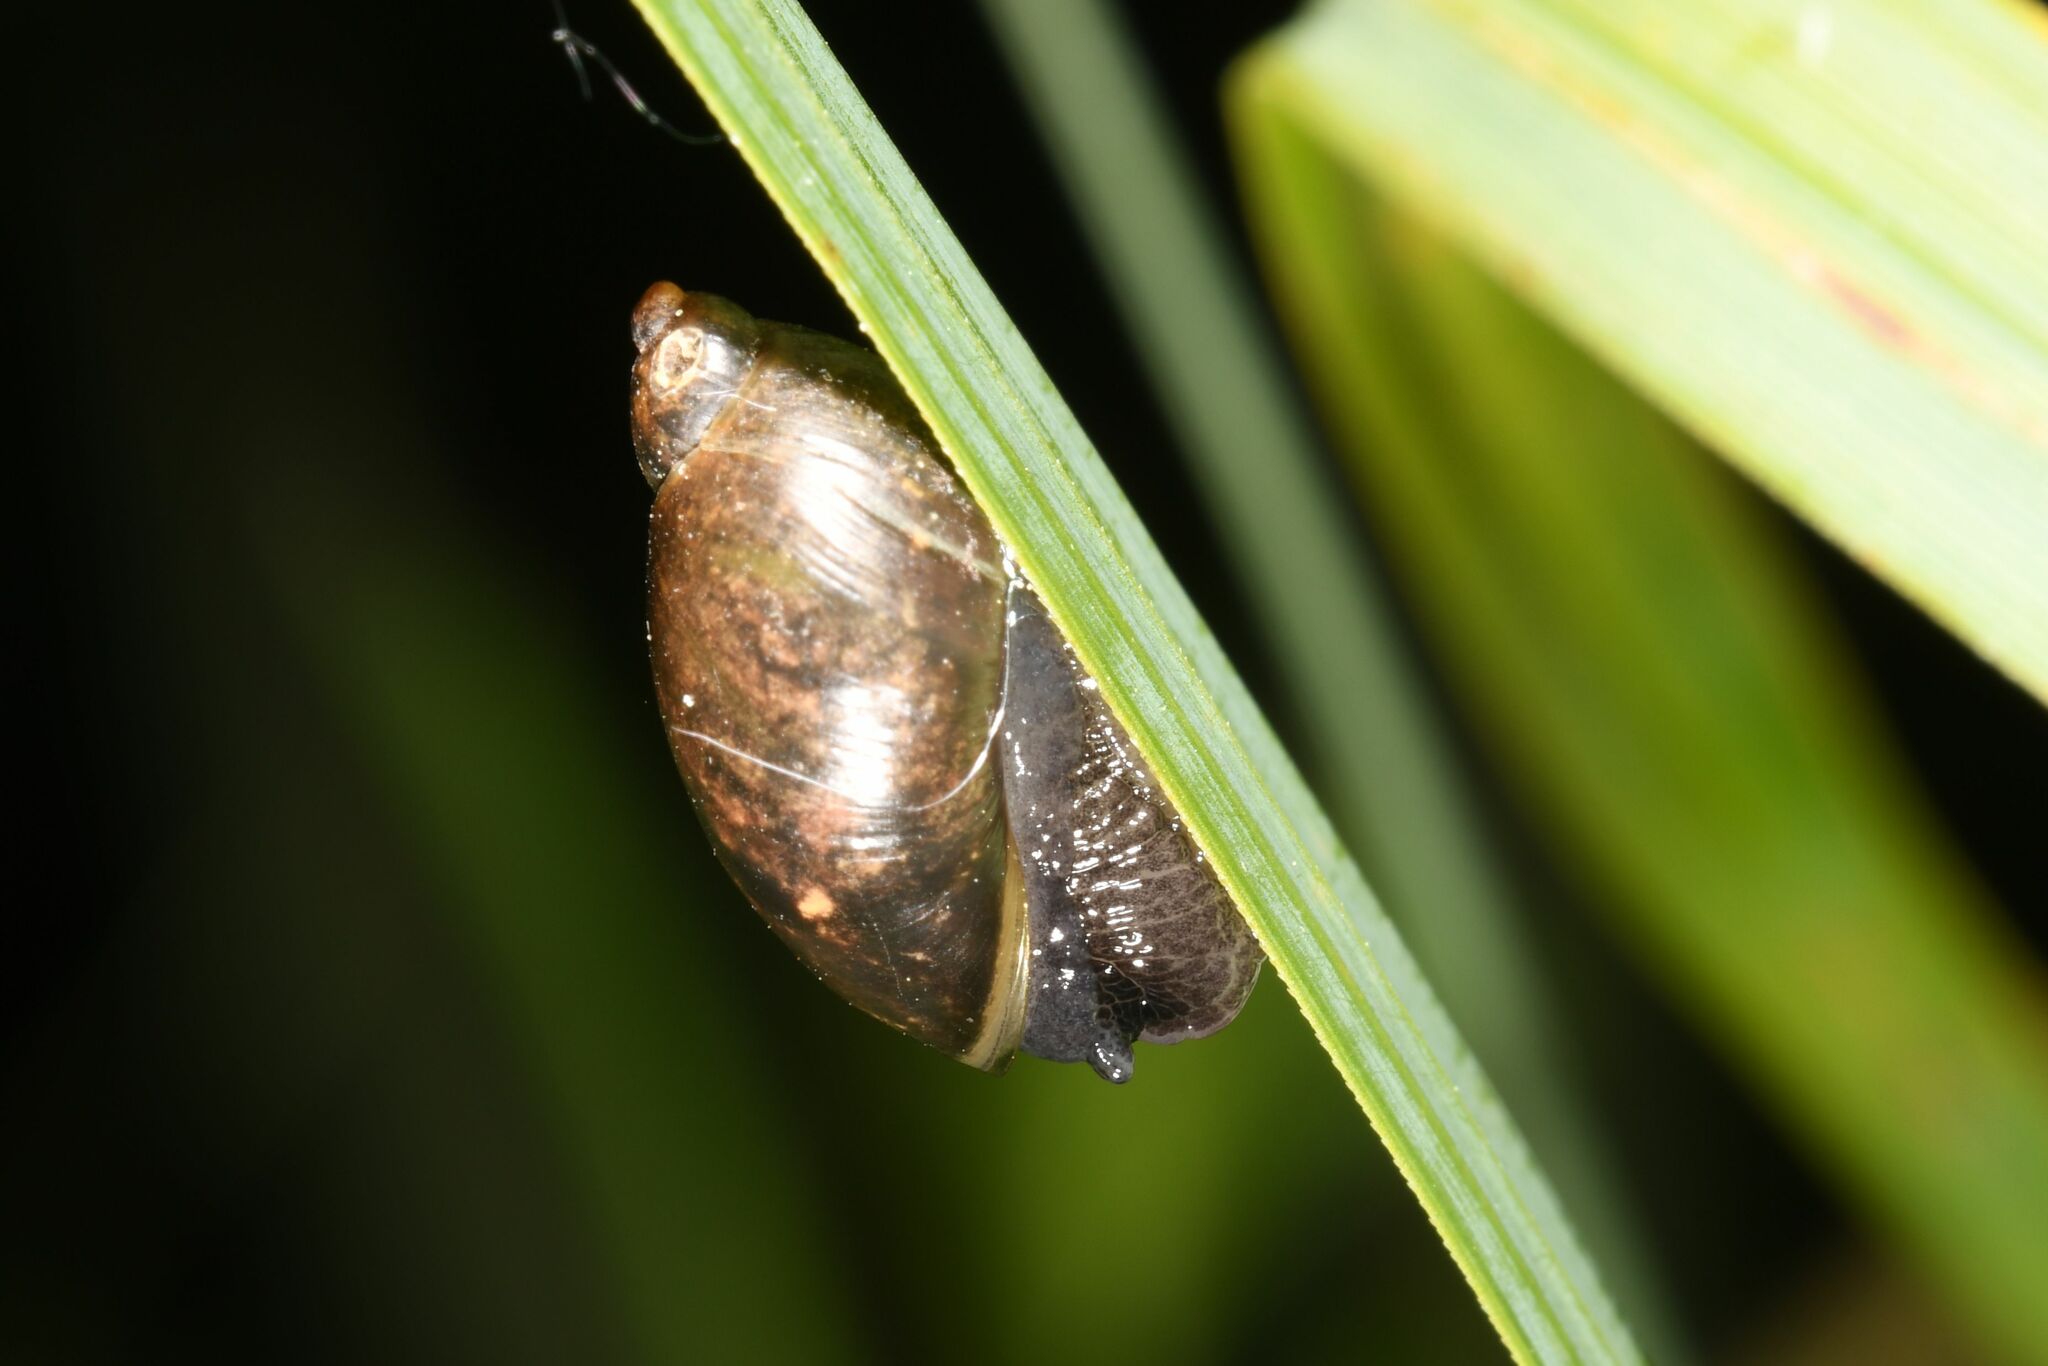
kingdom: Animalia
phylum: Mollusca
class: Gastropoda
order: Stylommatophora
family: Succineidae
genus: Succinea
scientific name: Succinea putris
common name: European ambersnail
